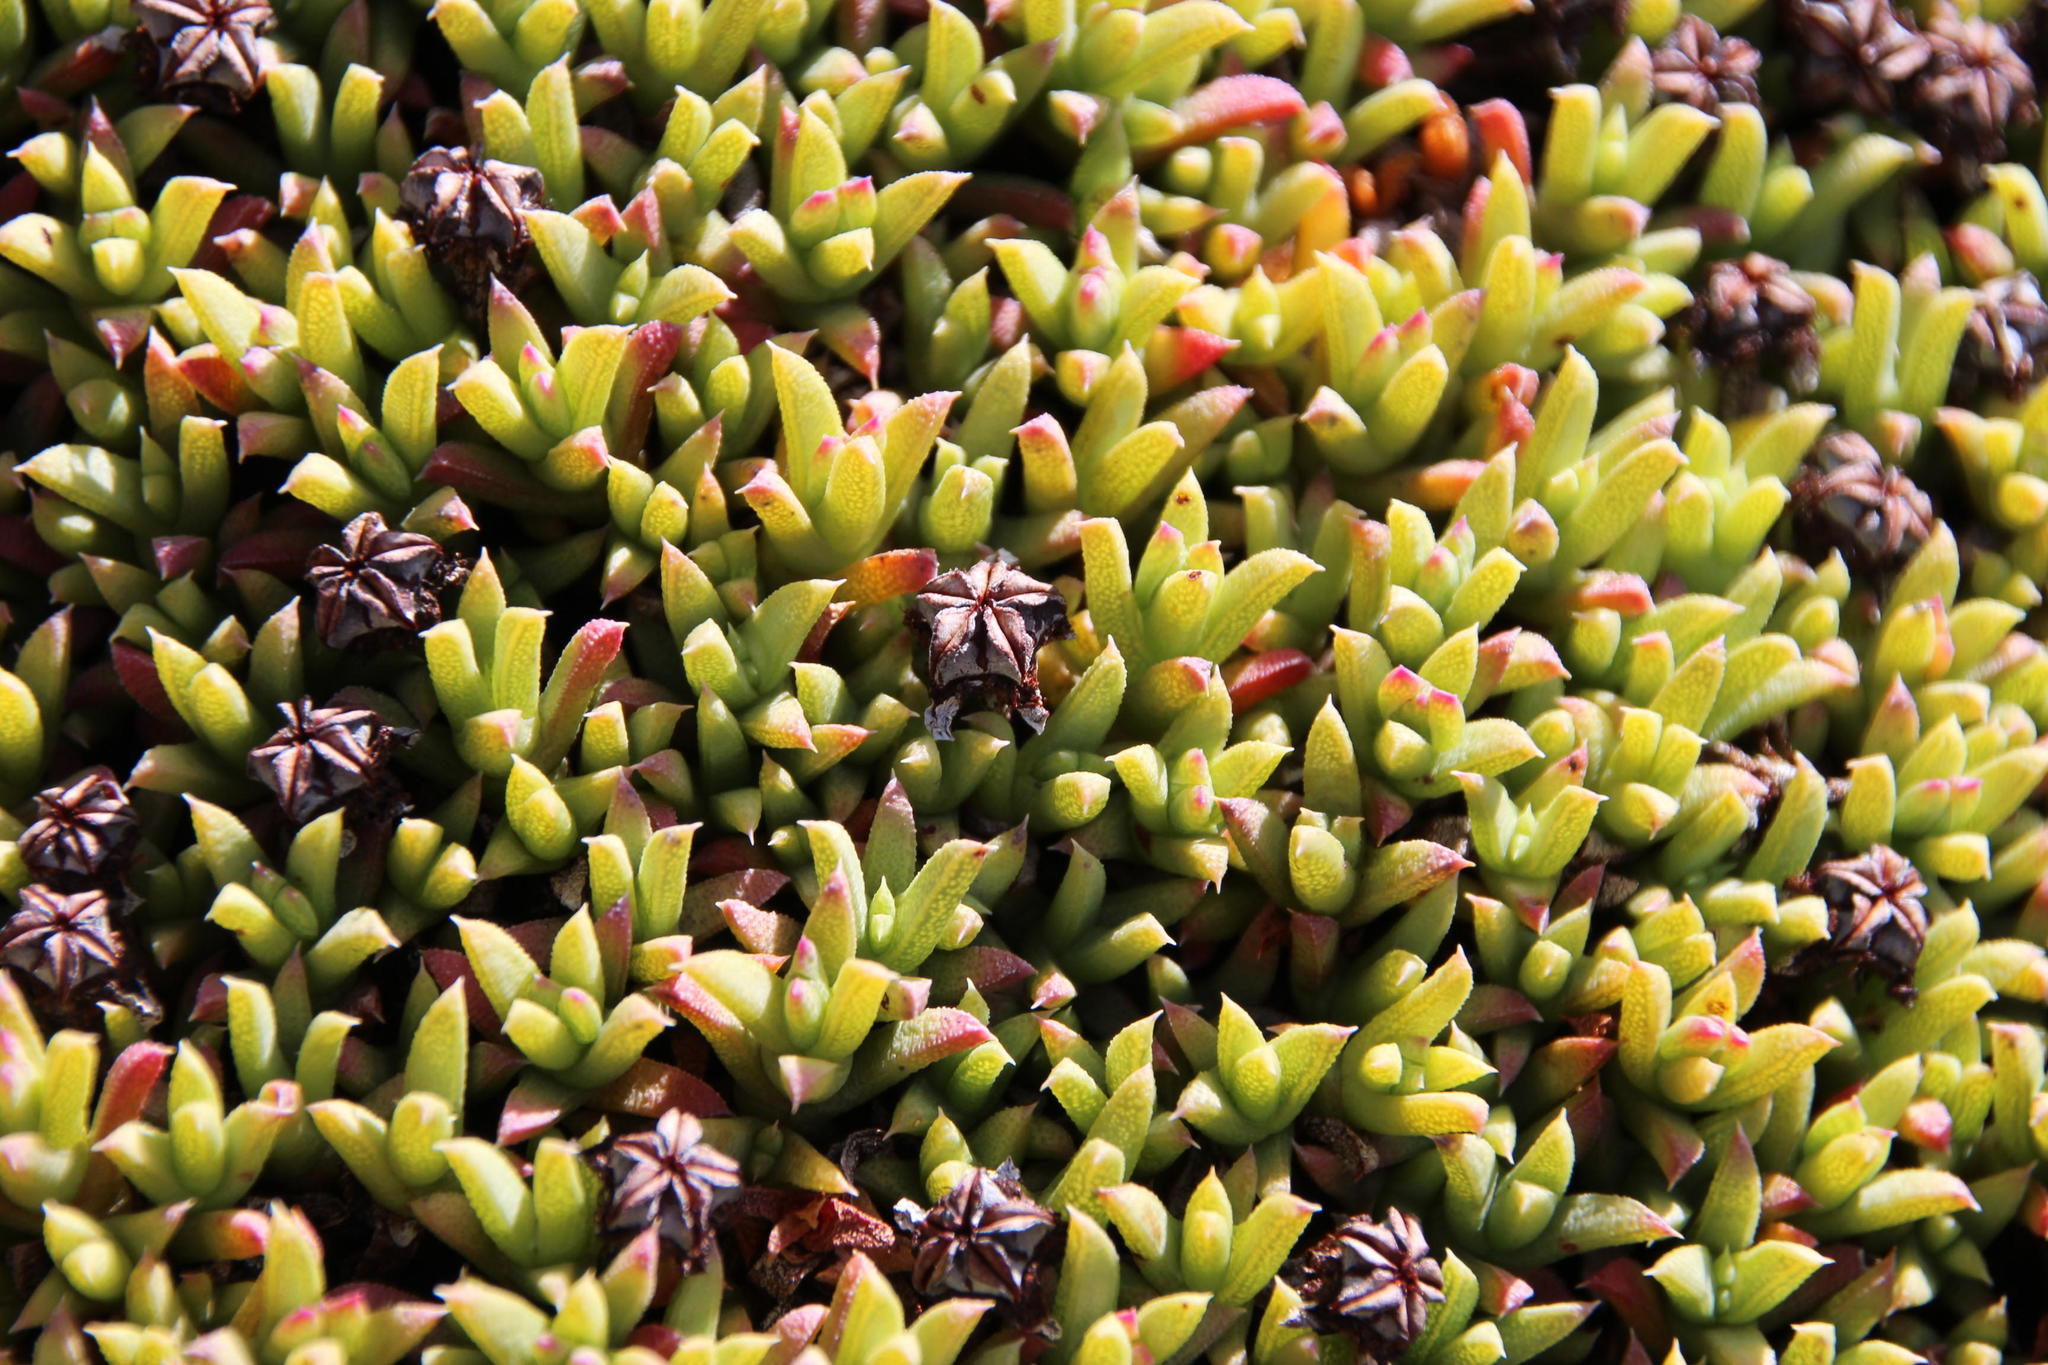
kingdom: Plantae
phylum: Tracheophyta
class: Magnoliopsida
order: Caryophyllales
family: Aizoaceae
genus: Ruschia
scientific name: Ruschia nonimpressa
